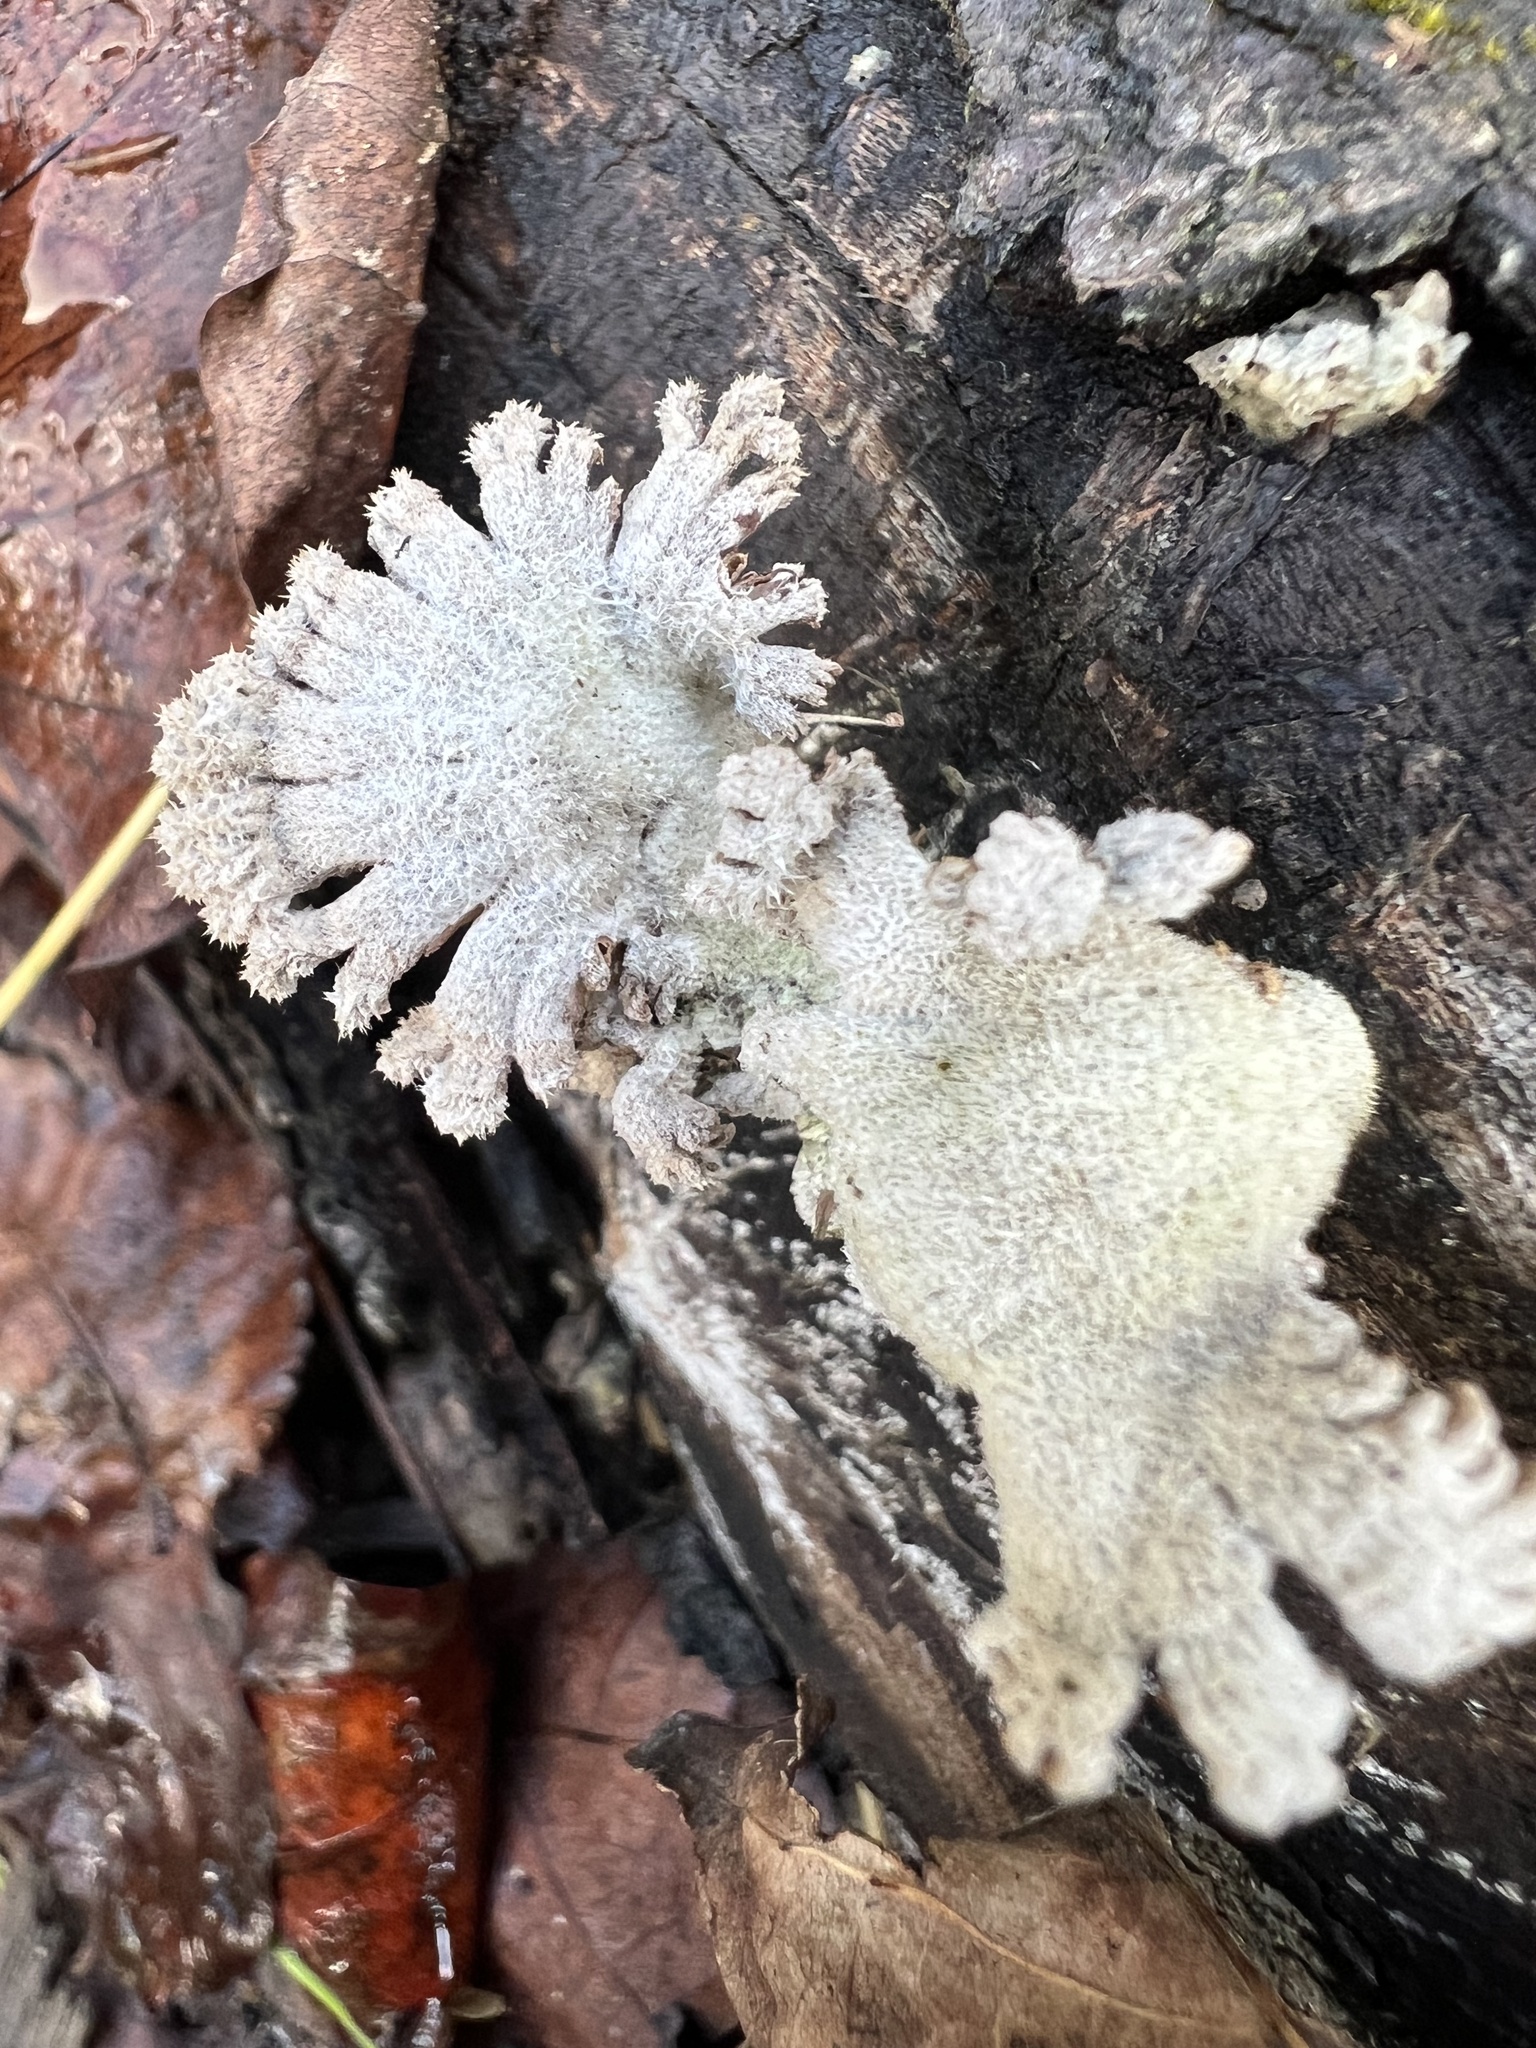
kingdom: Fungi
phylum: Basidiomycota
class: Agaricomycetes
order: Agaricales
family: Schizophyllaceae
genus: Schizophyllum
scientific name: Schizophyllum commune
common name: Common porecrust
